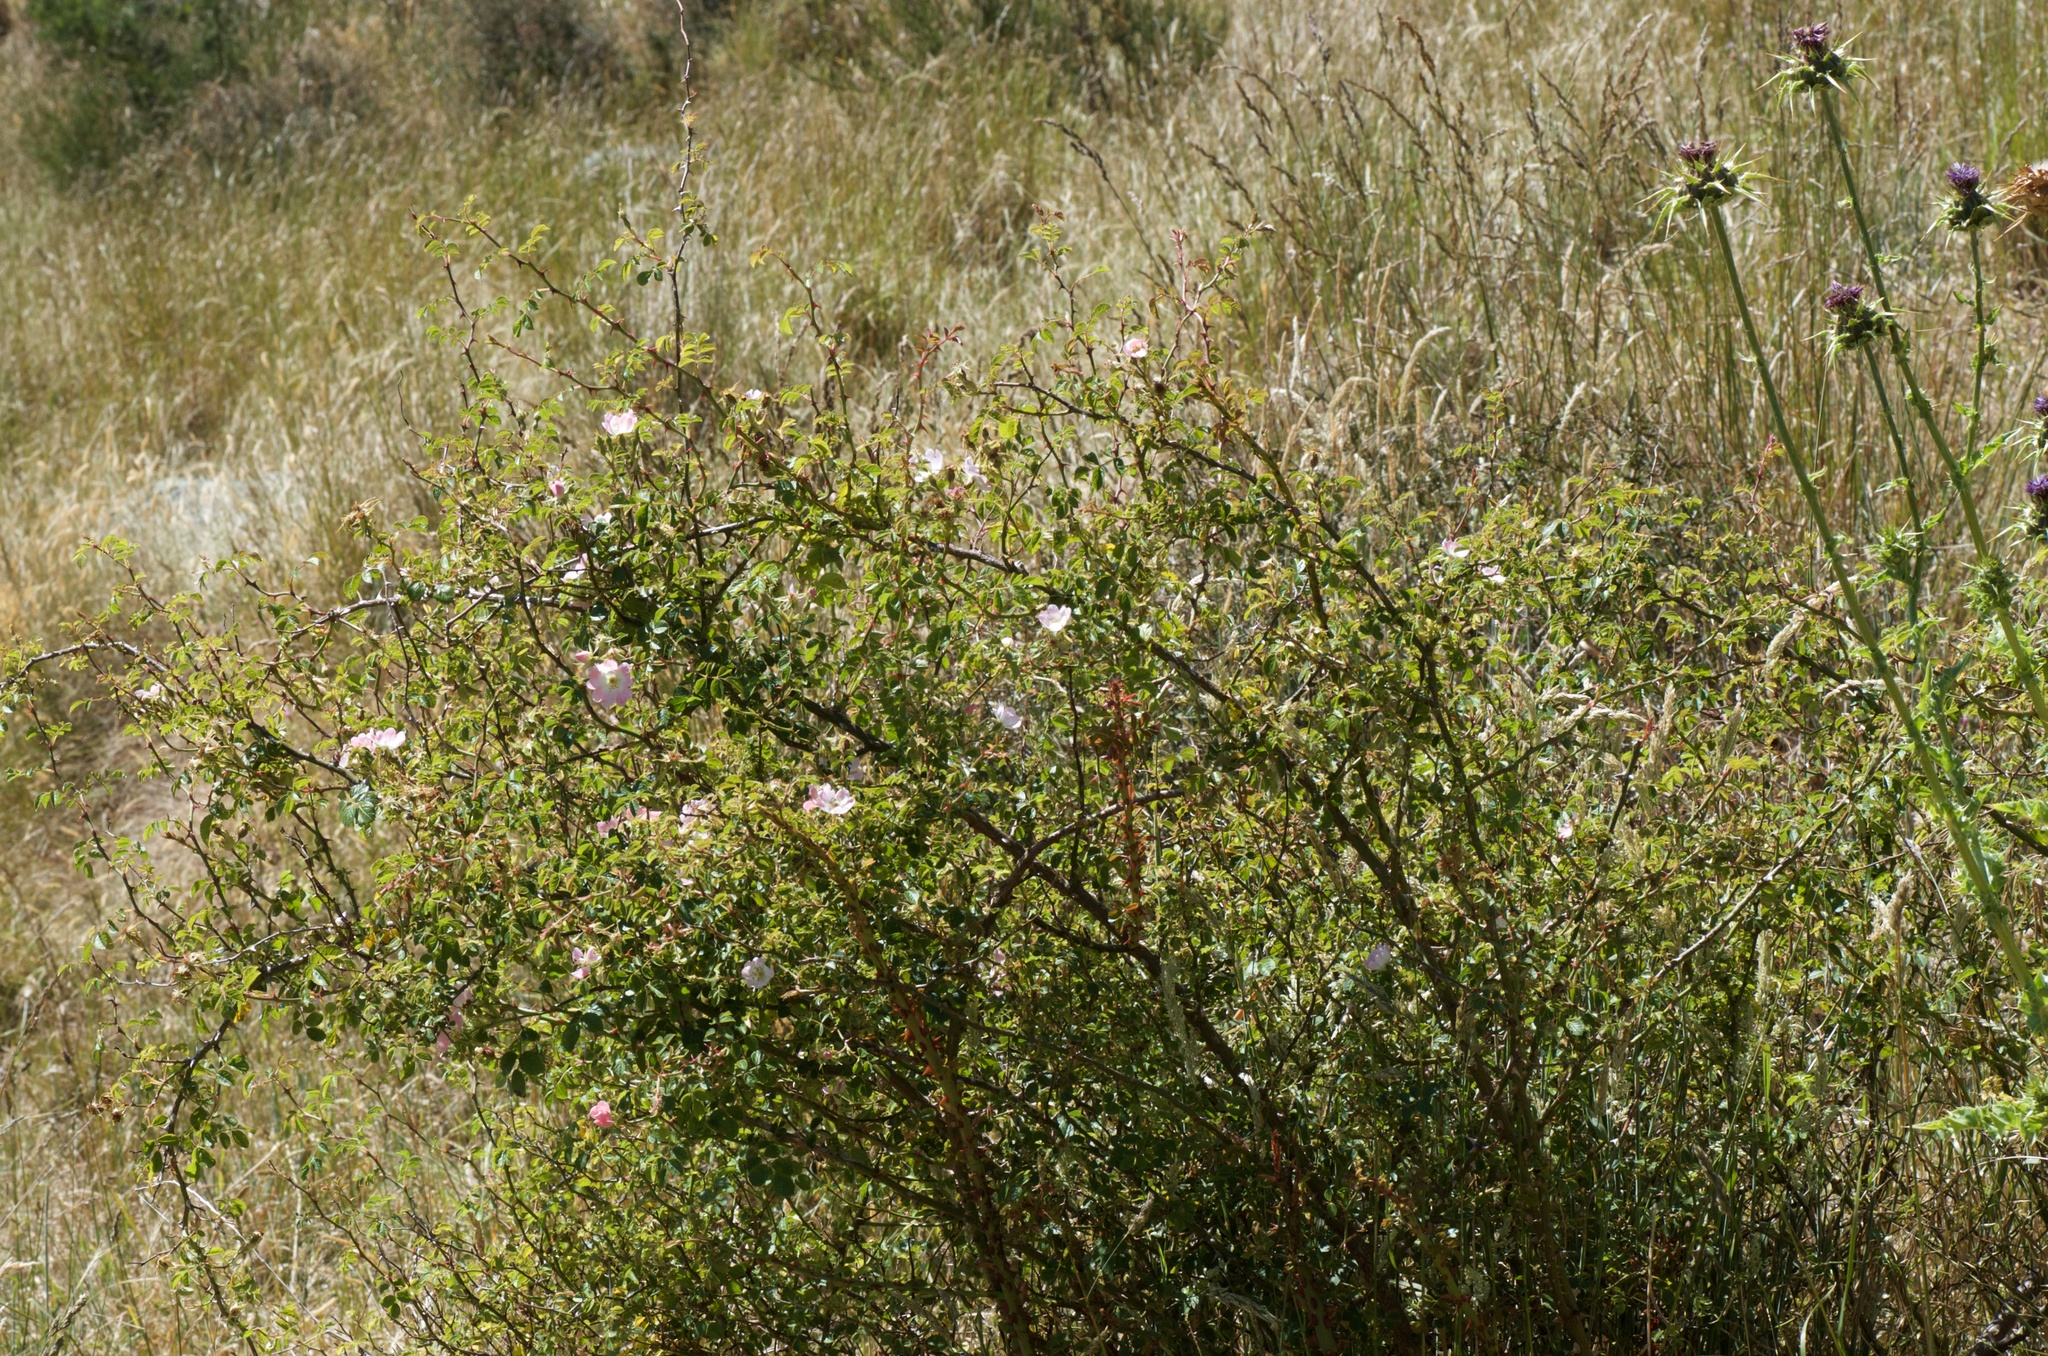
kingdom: Plantae
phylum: Tracheophyta
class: Magnoliopsida
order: Rosales
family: Rosaceae
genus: Rosa
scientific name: Rosa rubiginosa
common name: Sweet-briar
